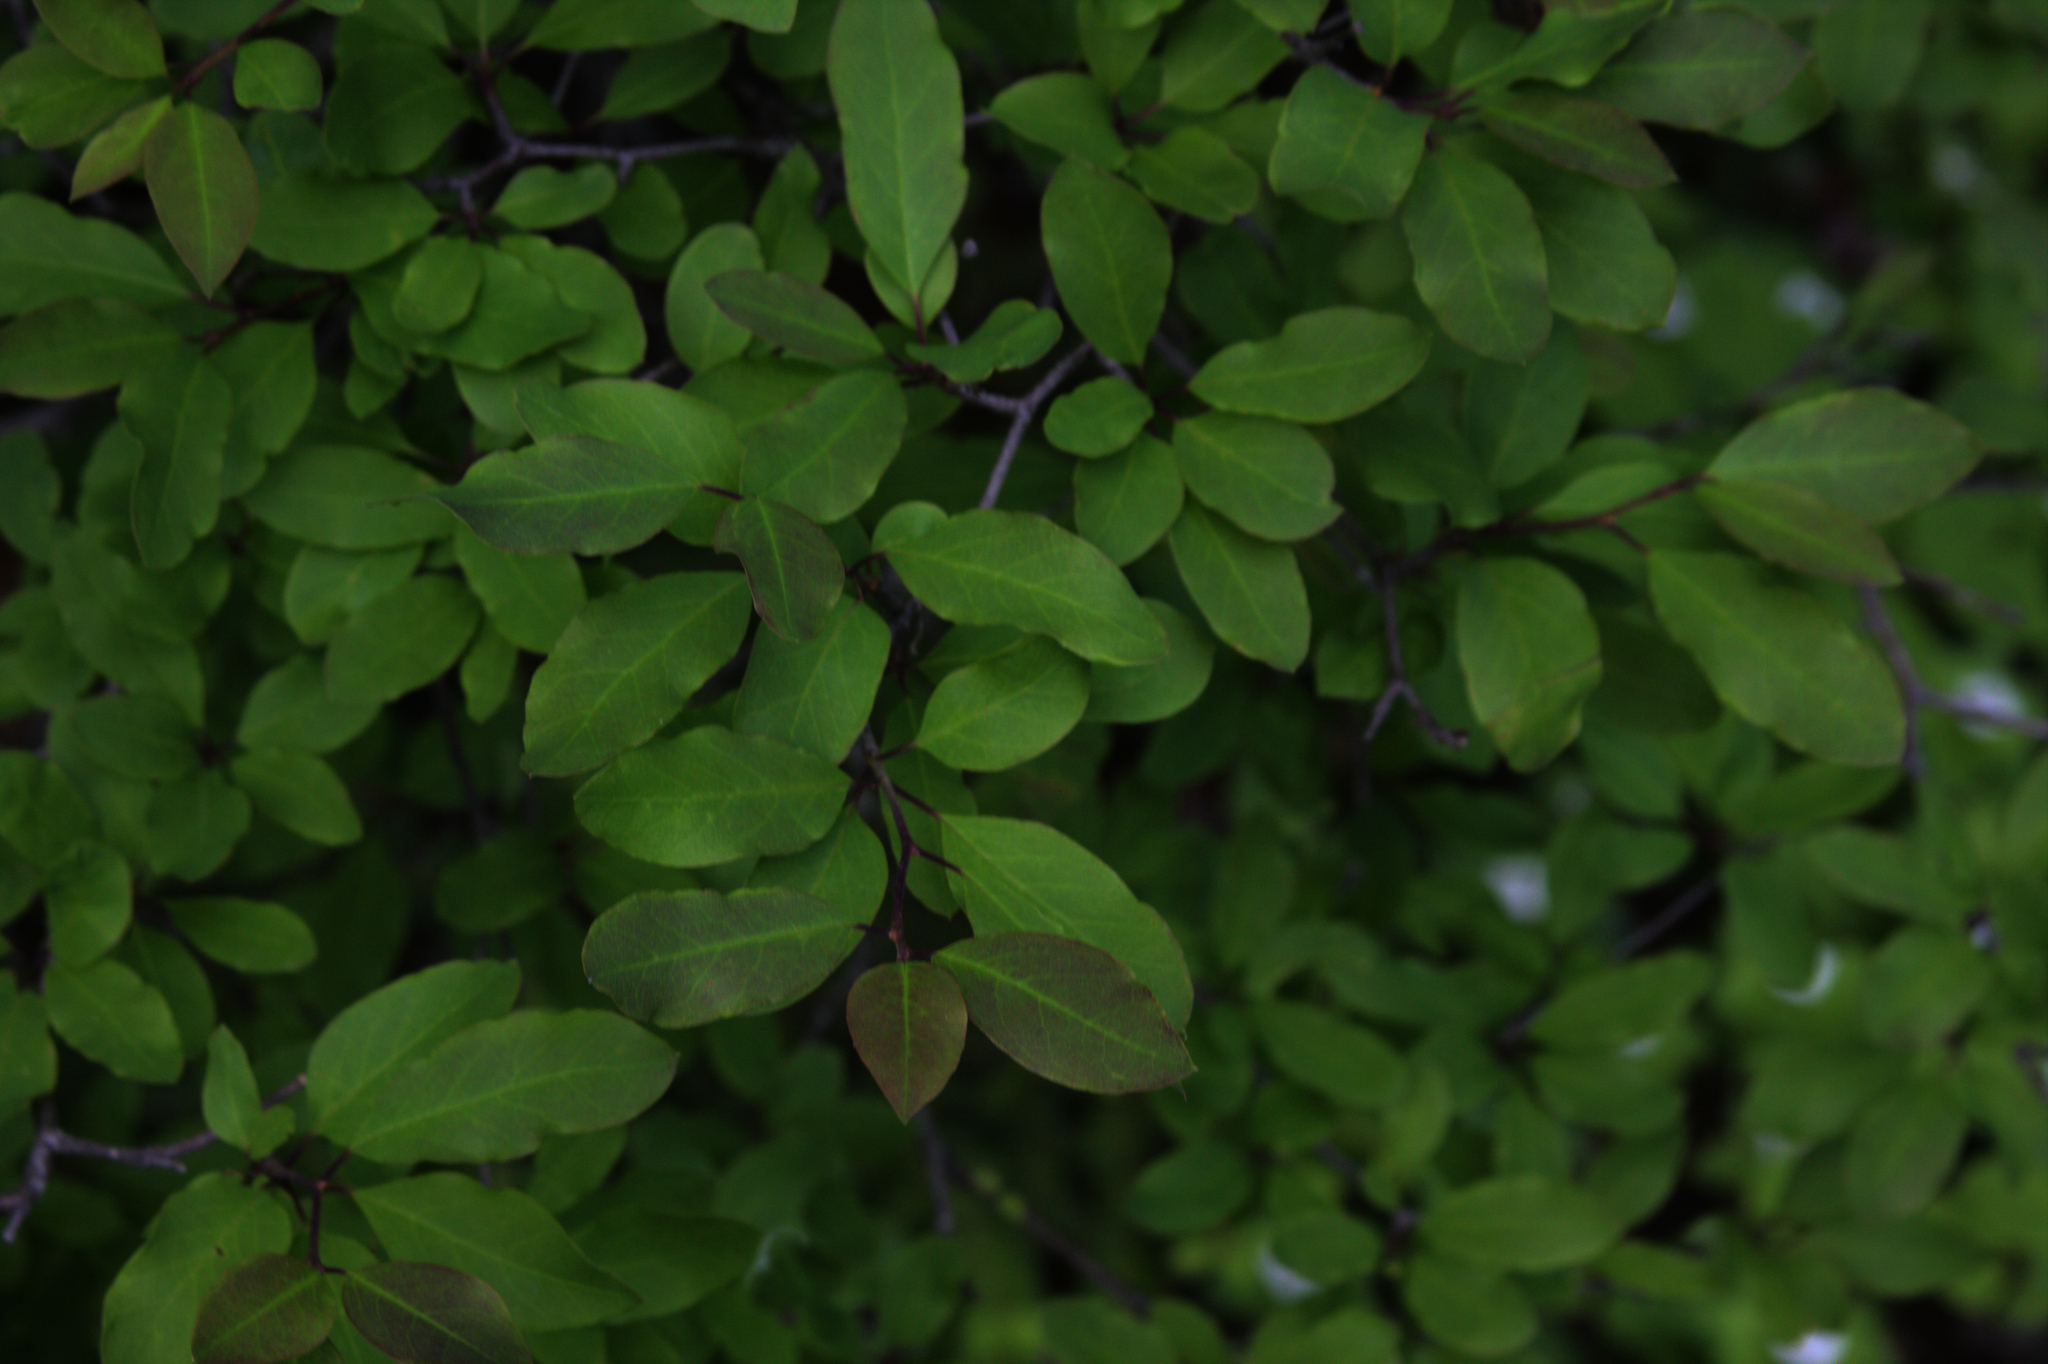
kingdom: Plantae
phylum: Tracheophyta
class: Magnoliopsida
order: Aquifoliales
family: Aquifoliaceae
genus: Ilex
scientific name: Ilex mucronata
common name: Catberry
